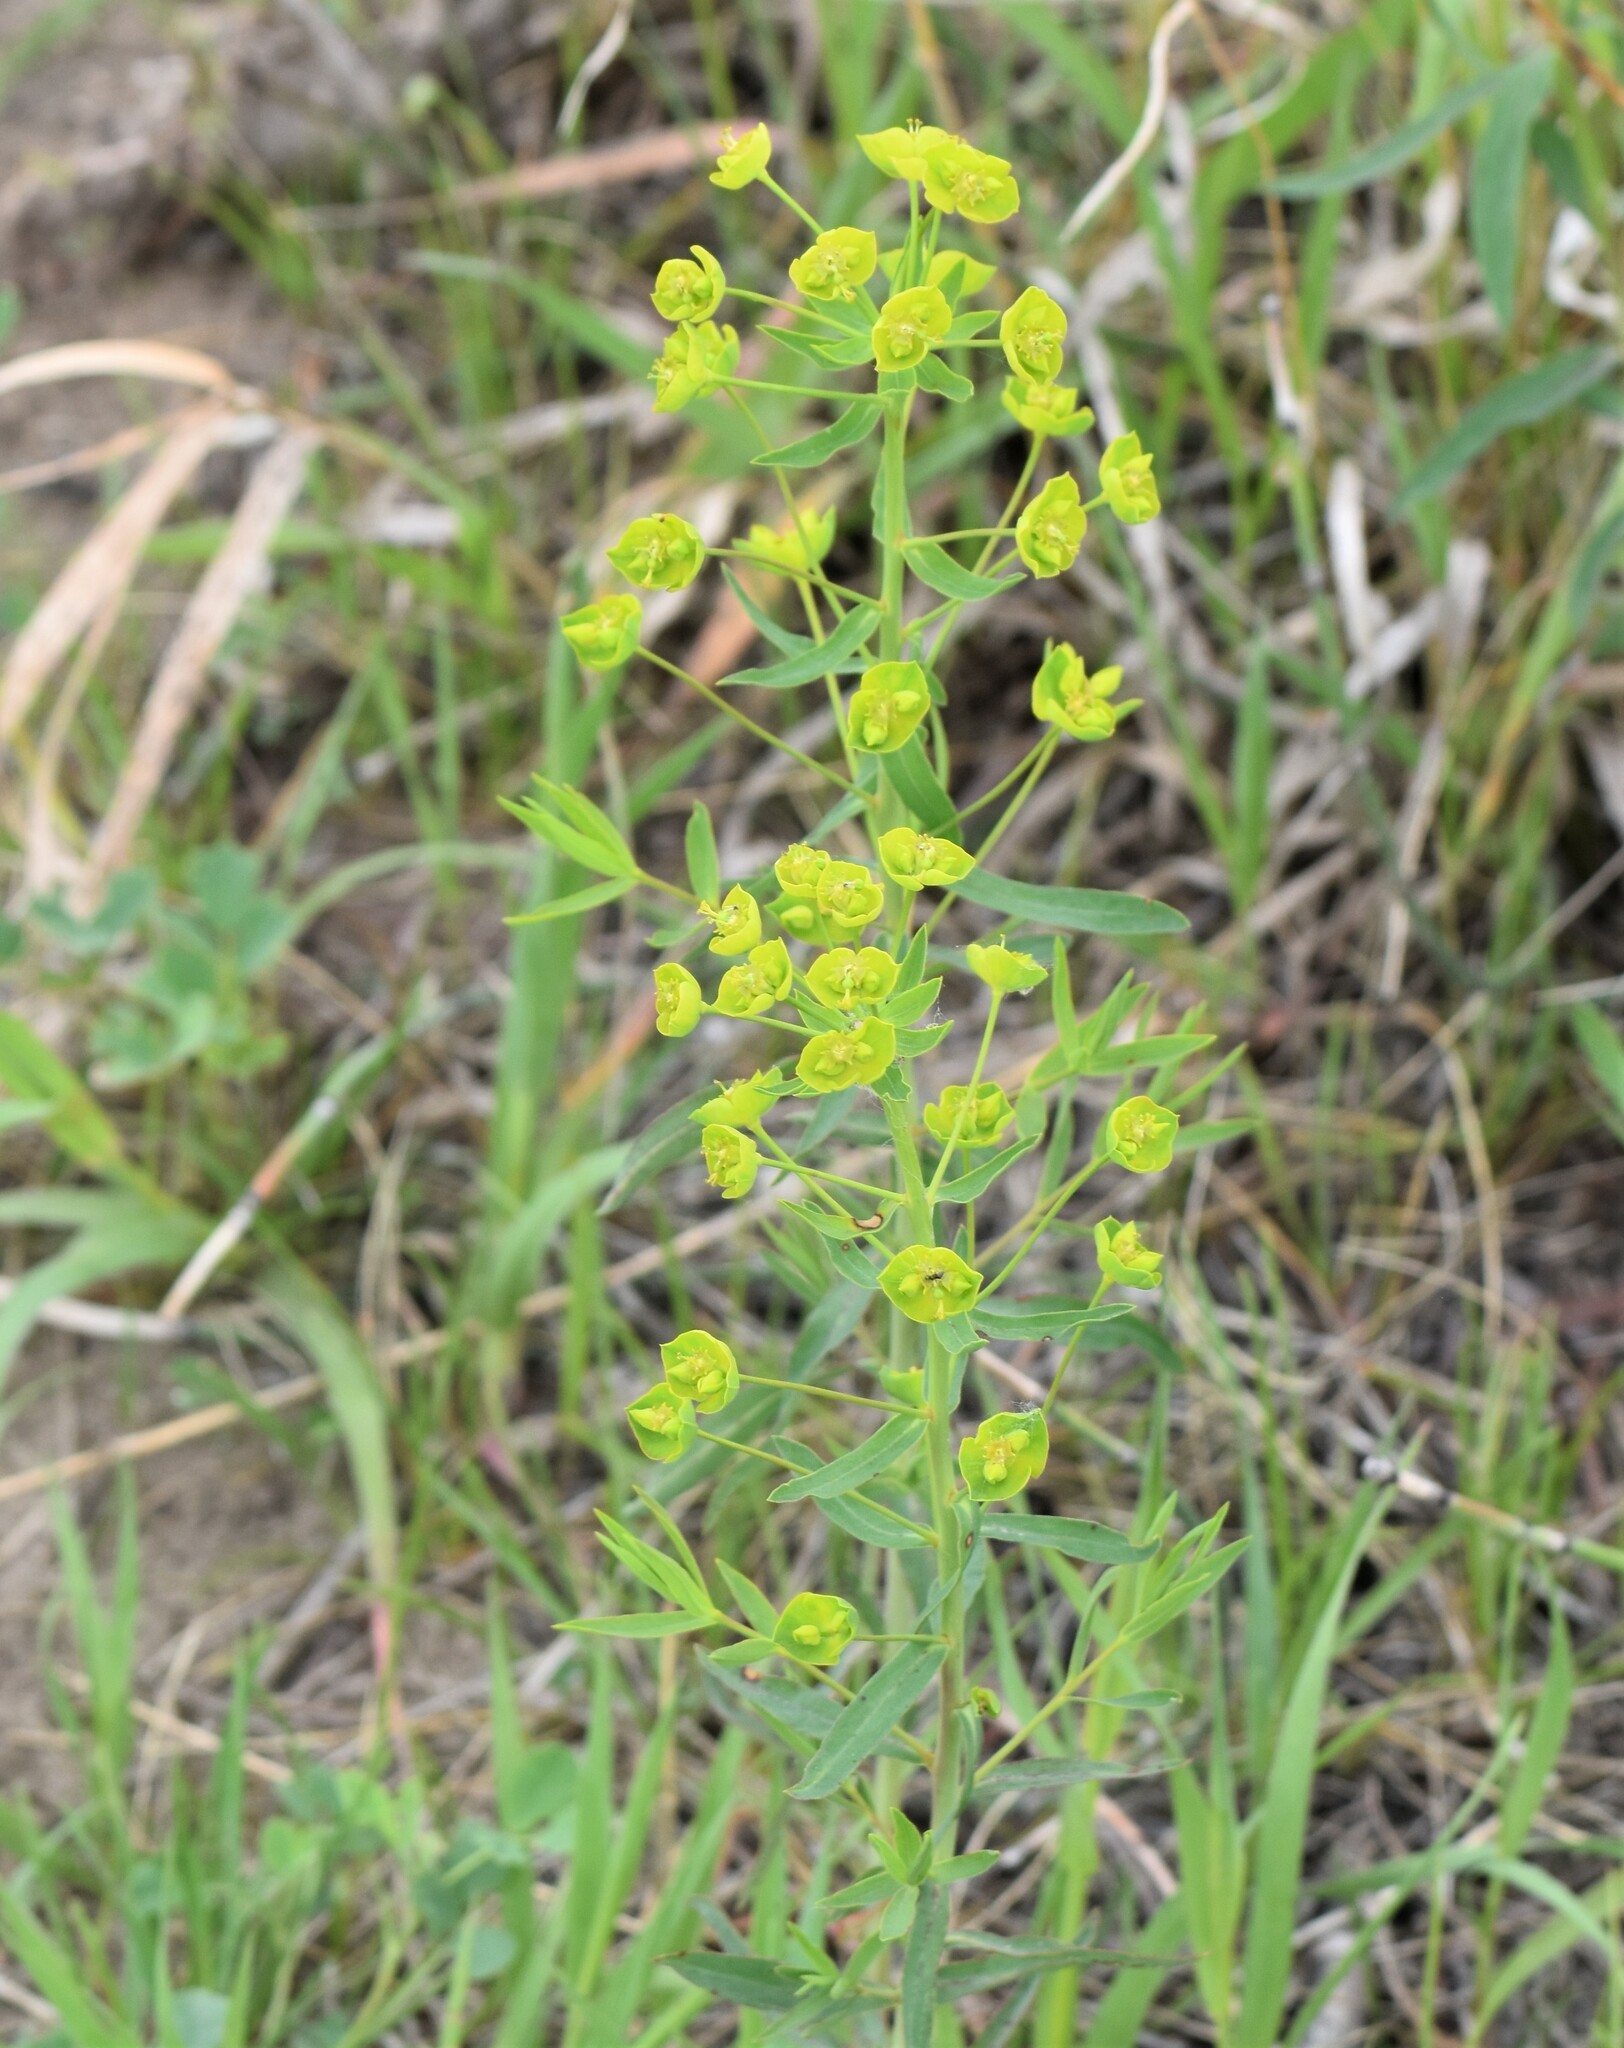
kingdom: Plantae
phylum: Tracheophyta
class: Magnoliopsida
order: Malpighiales
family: Euphorbiaceae
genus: Euphorbia
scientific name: Euphorbia virgata
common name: Leafy spurge
